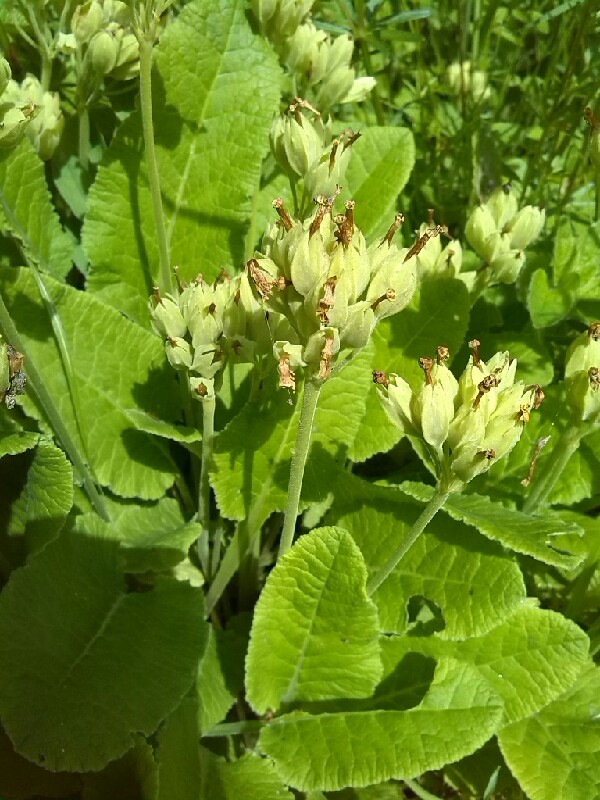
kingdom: Plantae
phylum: Tracheophyta
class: Magnoliopsida
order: Ericales
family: Primulaceae
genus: Primula
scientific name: Primula veris
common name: Cowslip
